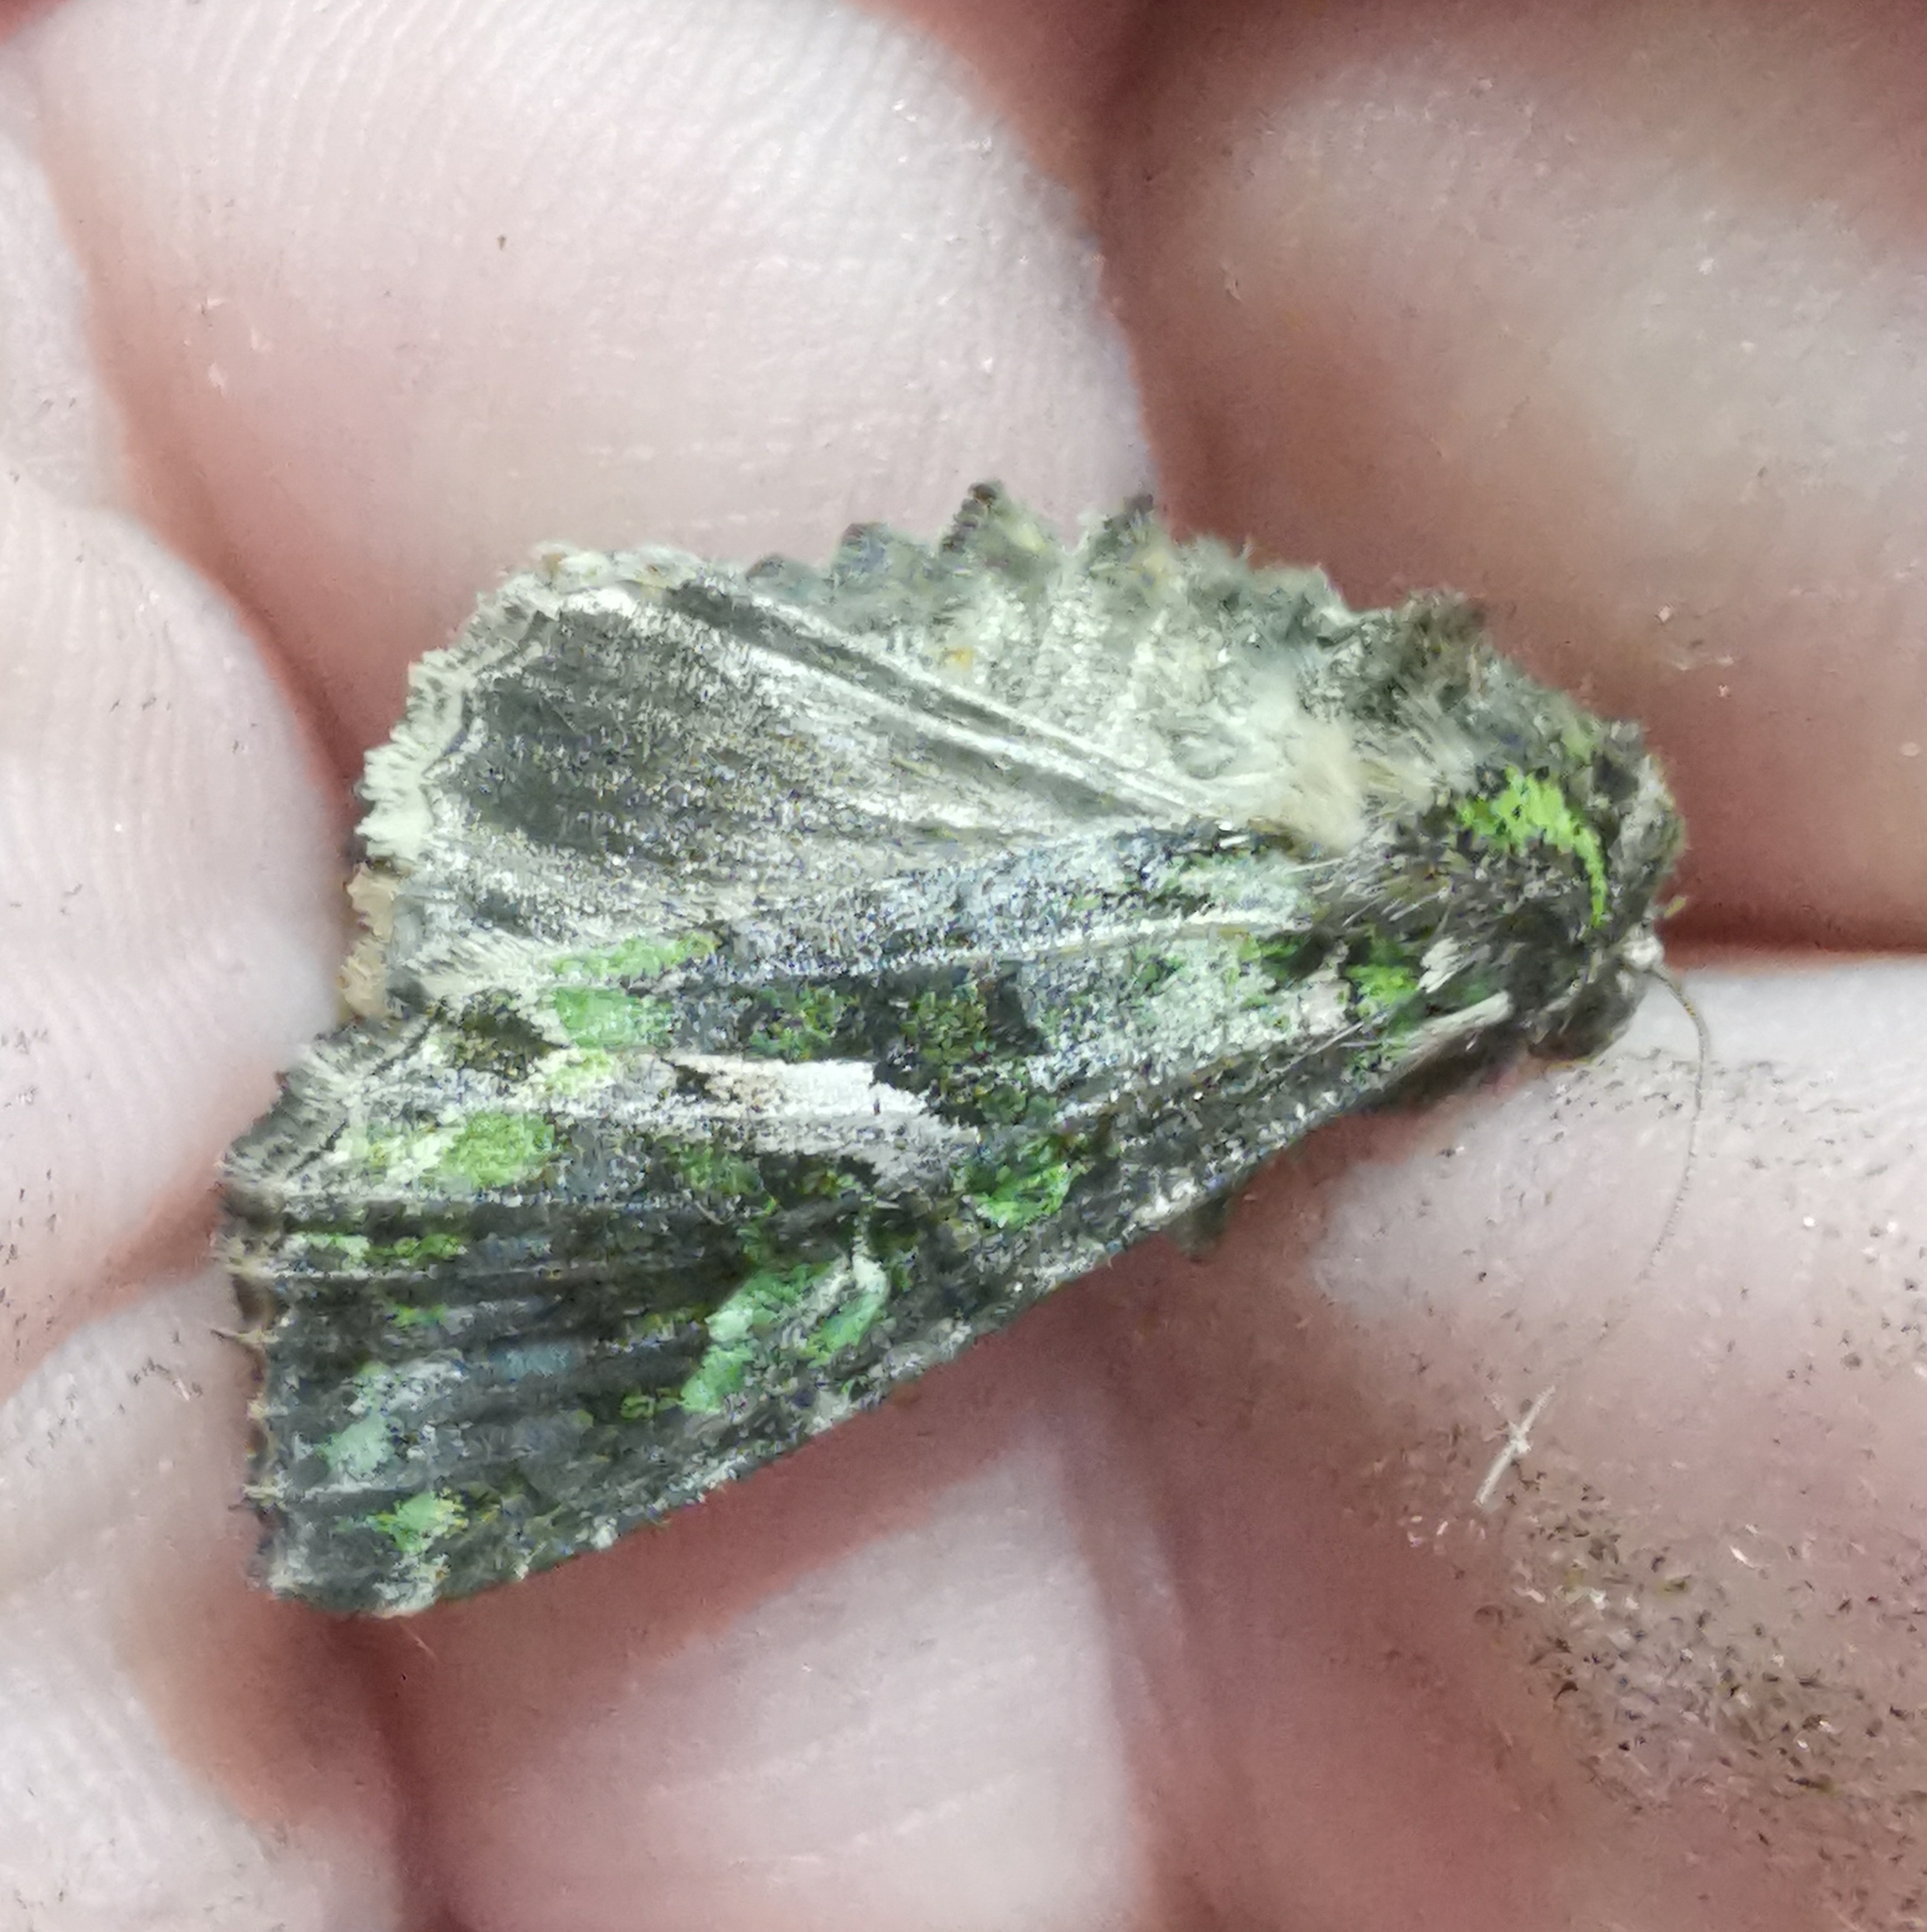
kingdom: Animalia
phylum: Arthropoda
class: Insecta
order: Lepidoptera
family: Noctuidae
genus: Trachea
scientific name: Trachea atriplicis
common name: Orache moth
